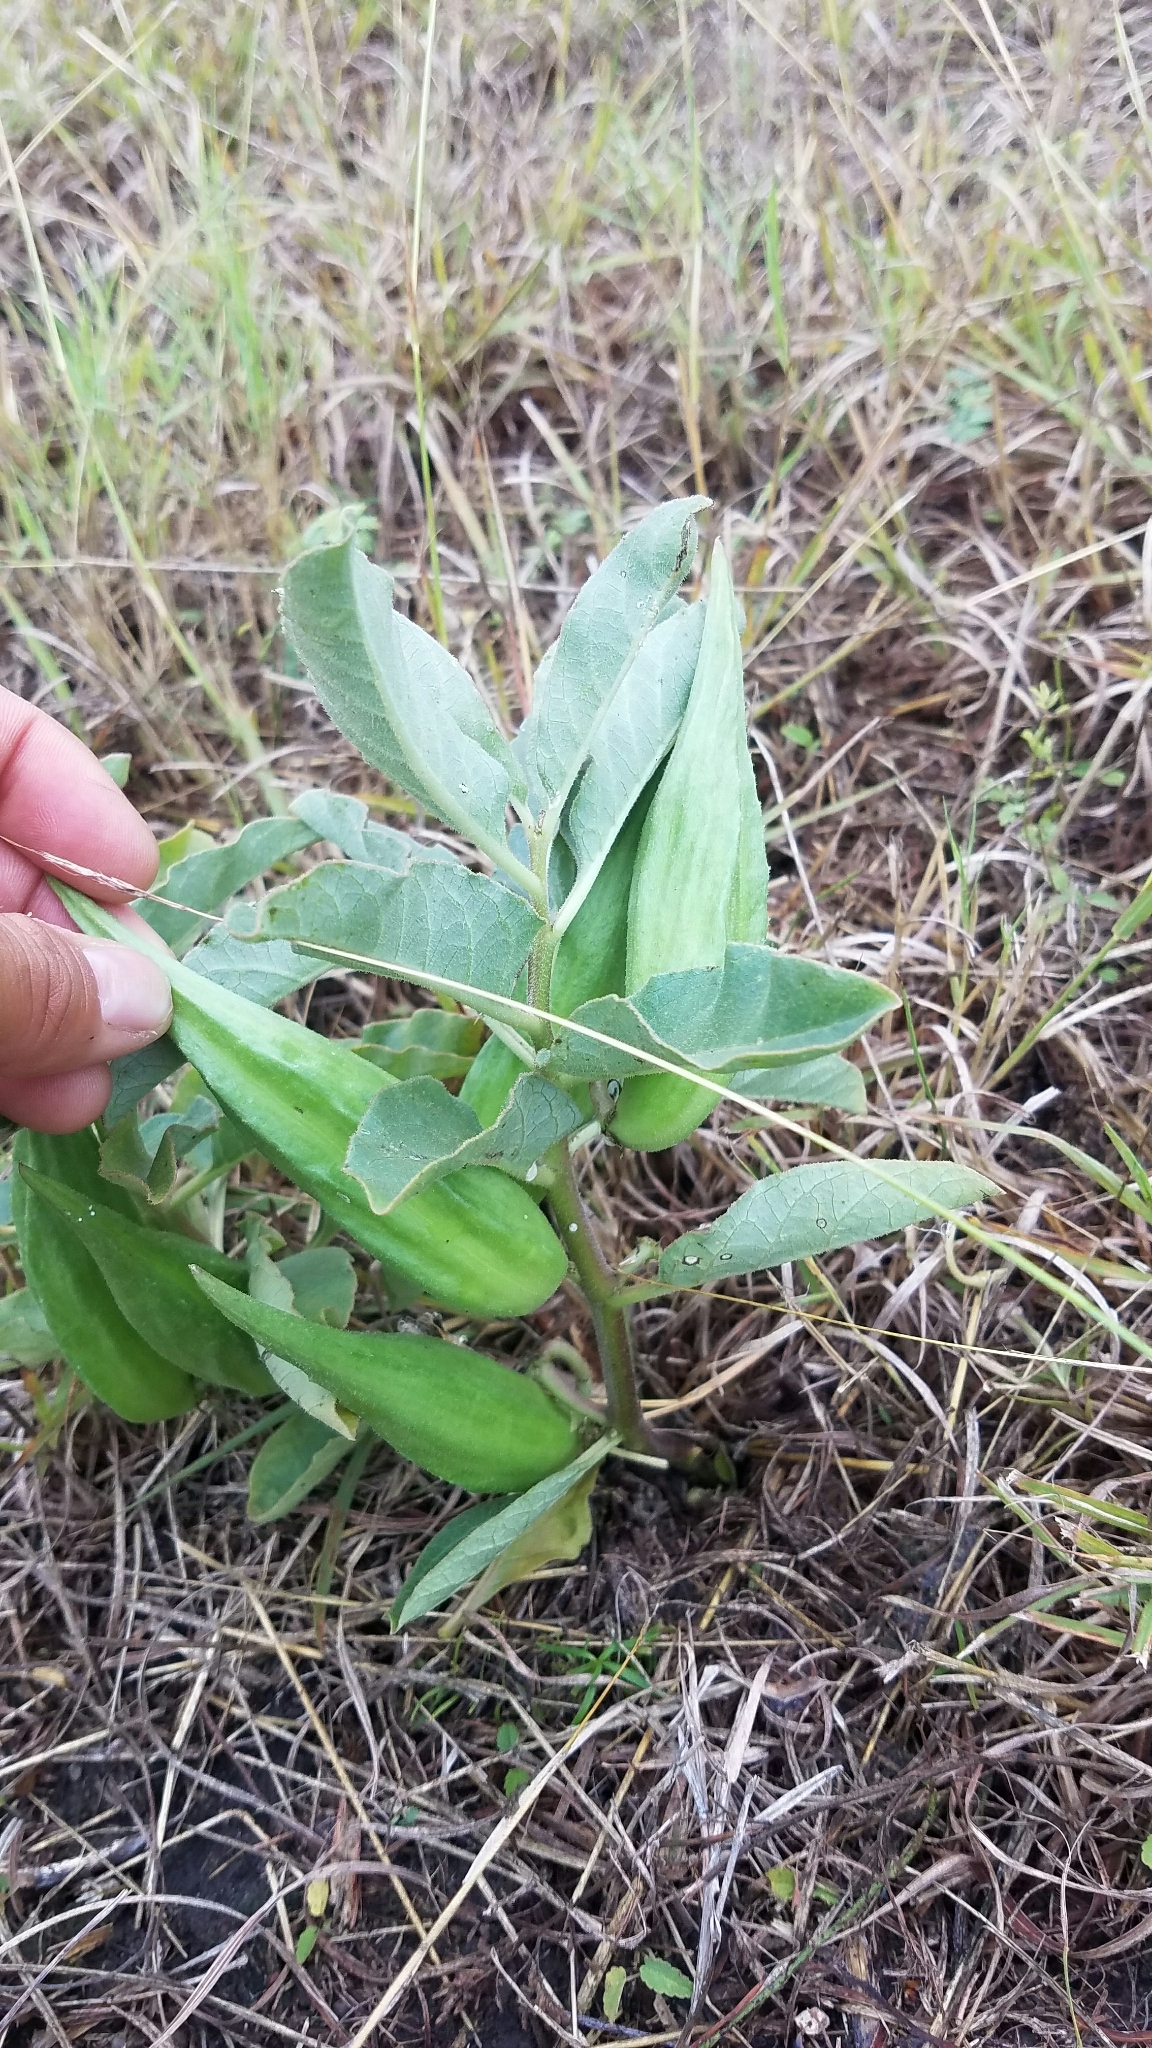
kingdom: Plantae
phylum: Tracheophyta
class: Magnoliopsida
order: Gentianales
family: Apocynaceae
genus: Asclepias
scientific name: Asclepias oenotheroides
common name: Zizotes milkweed
